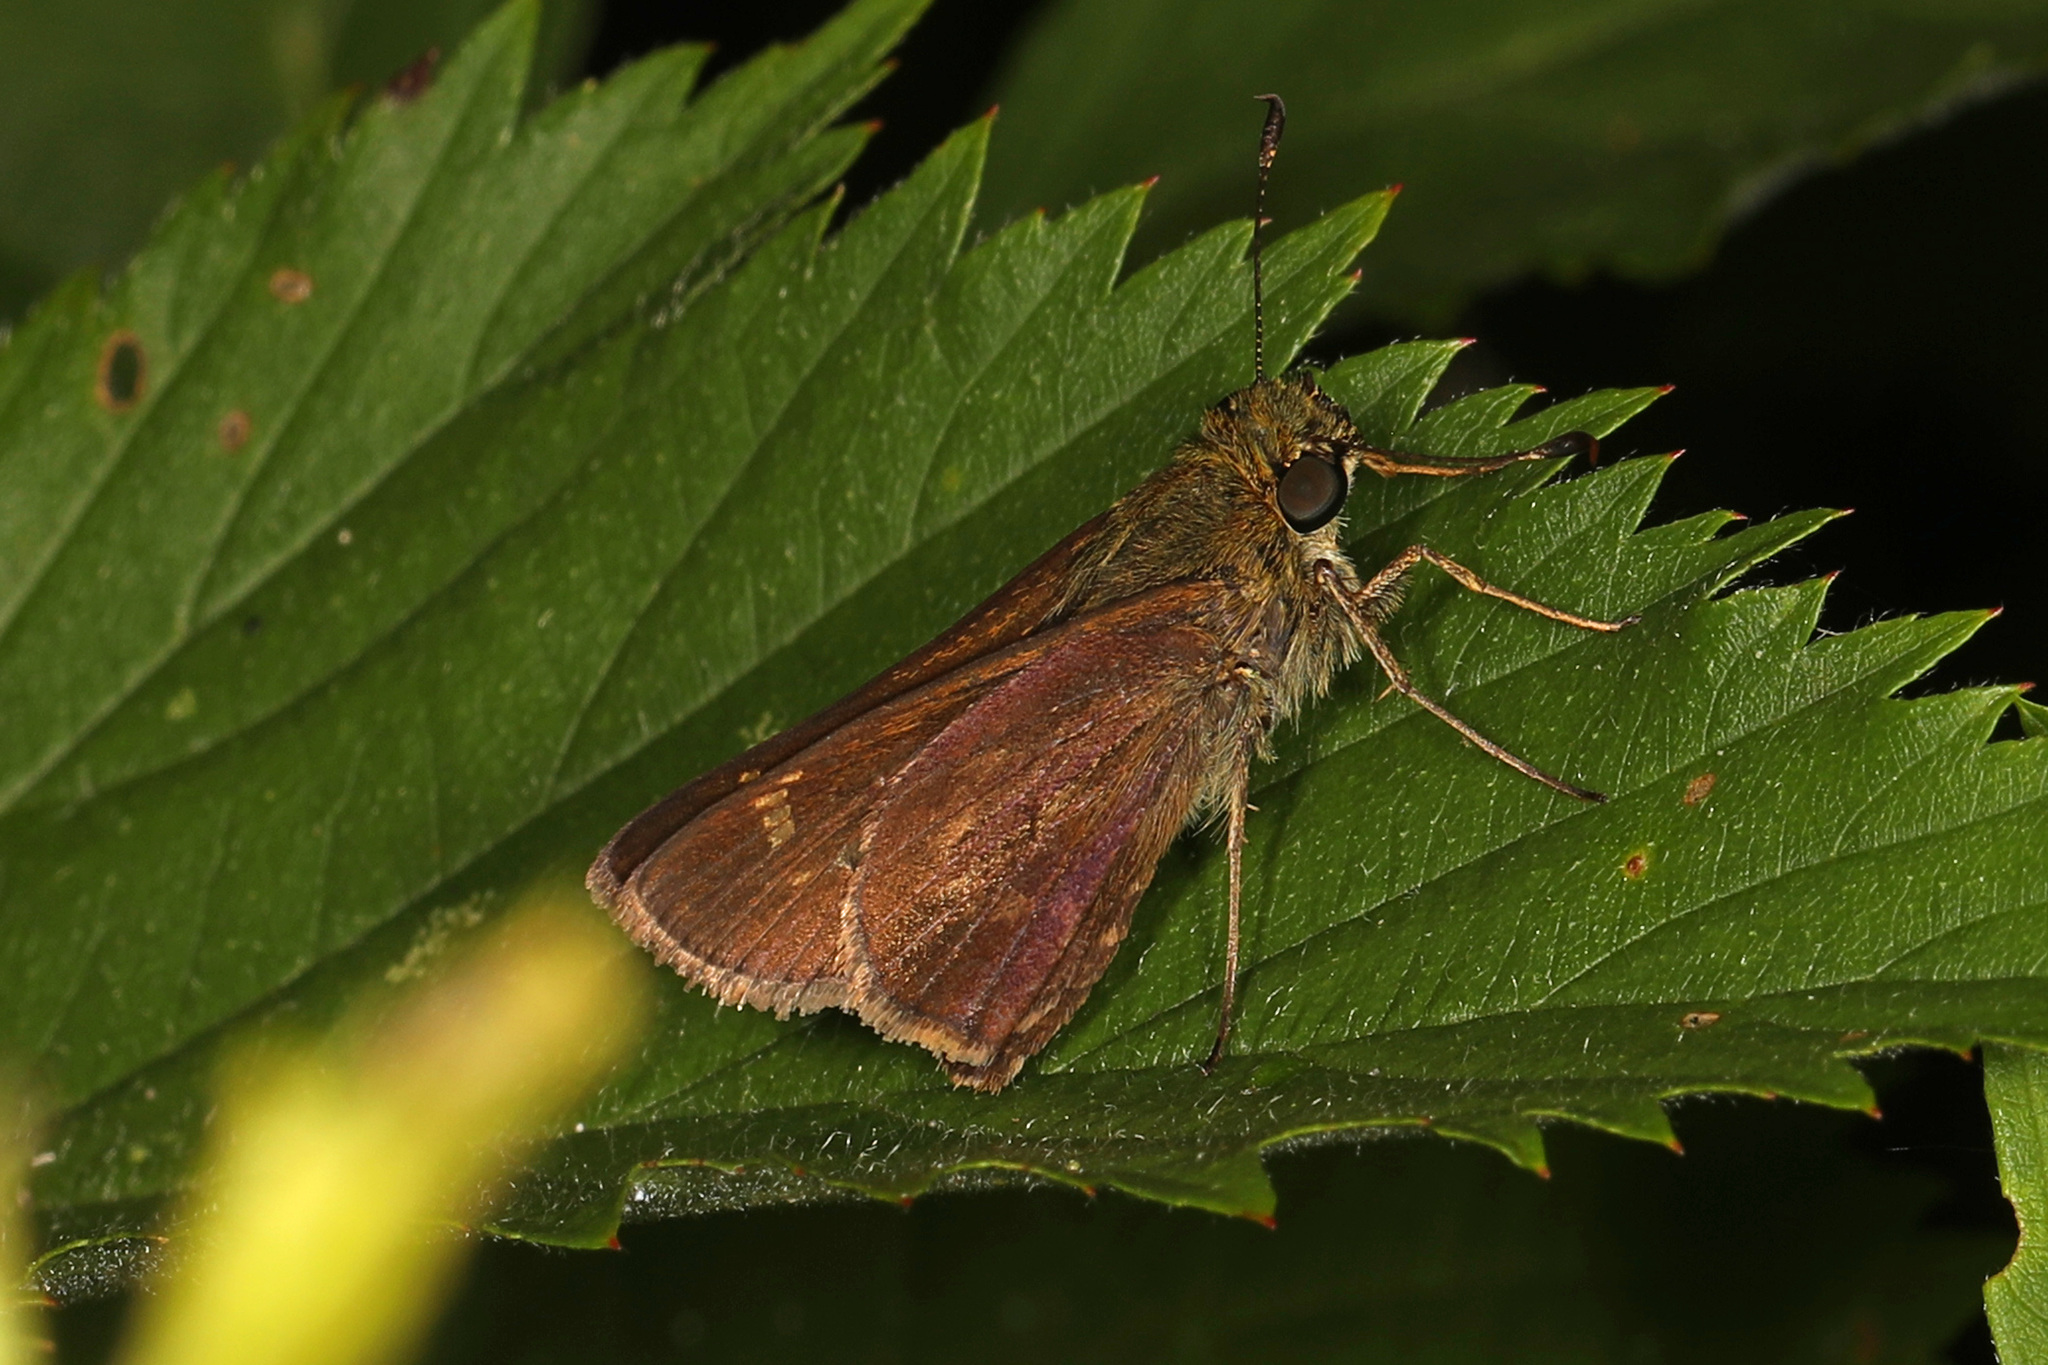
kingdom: Animalia
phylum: Arthropoda
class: Insecta
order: Lepidoptera
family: Hesperiidae
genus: Vernia
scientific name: Vernia verna
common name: Little glassywing
